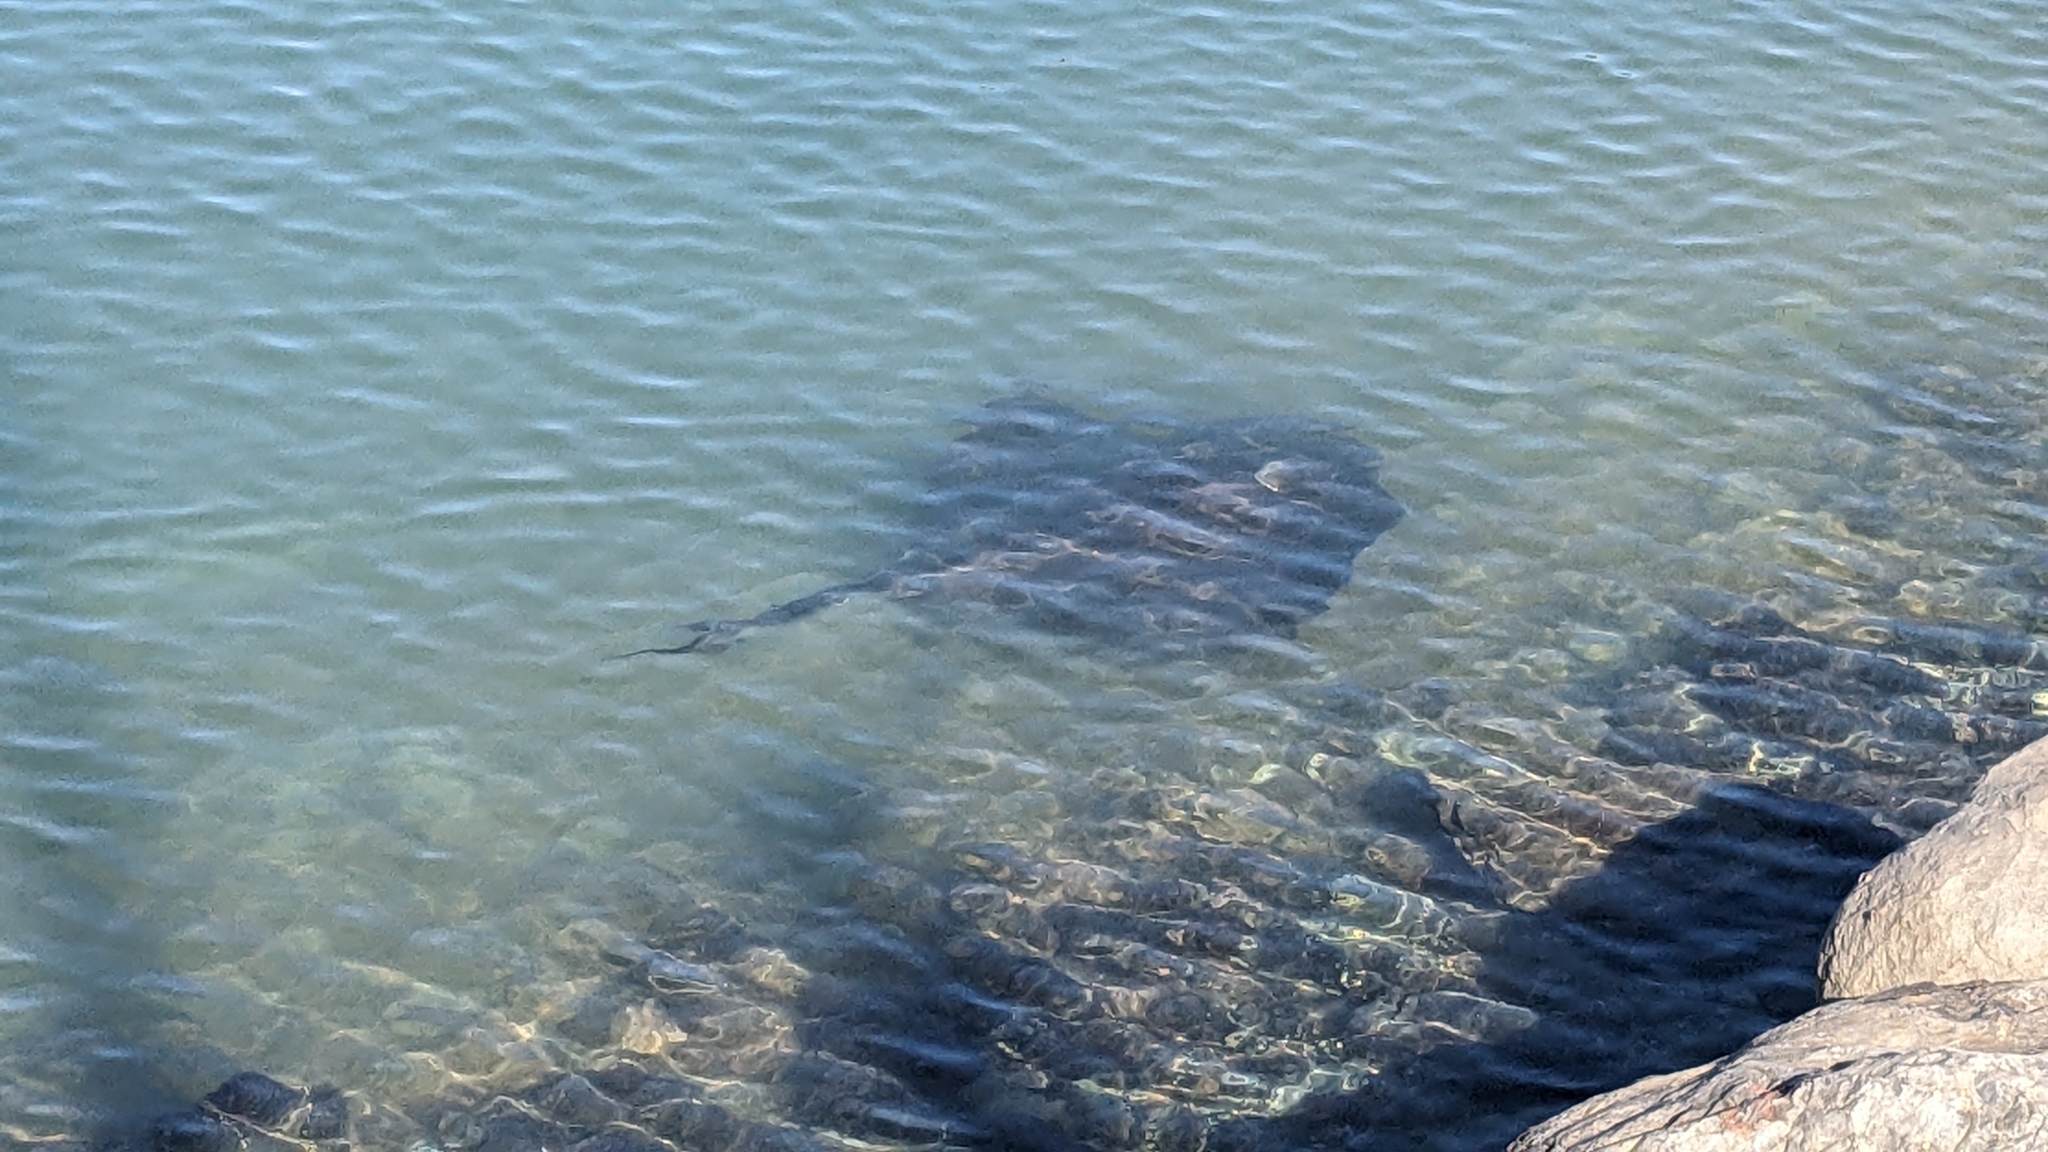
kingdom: Animalia
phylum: Chordata
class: Elasmobranchii
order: Myliobatiformes
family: Dasyatidae
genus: Bathytoshia
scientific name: Bathytoshia brevicaudata
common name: Short-tail stingray
